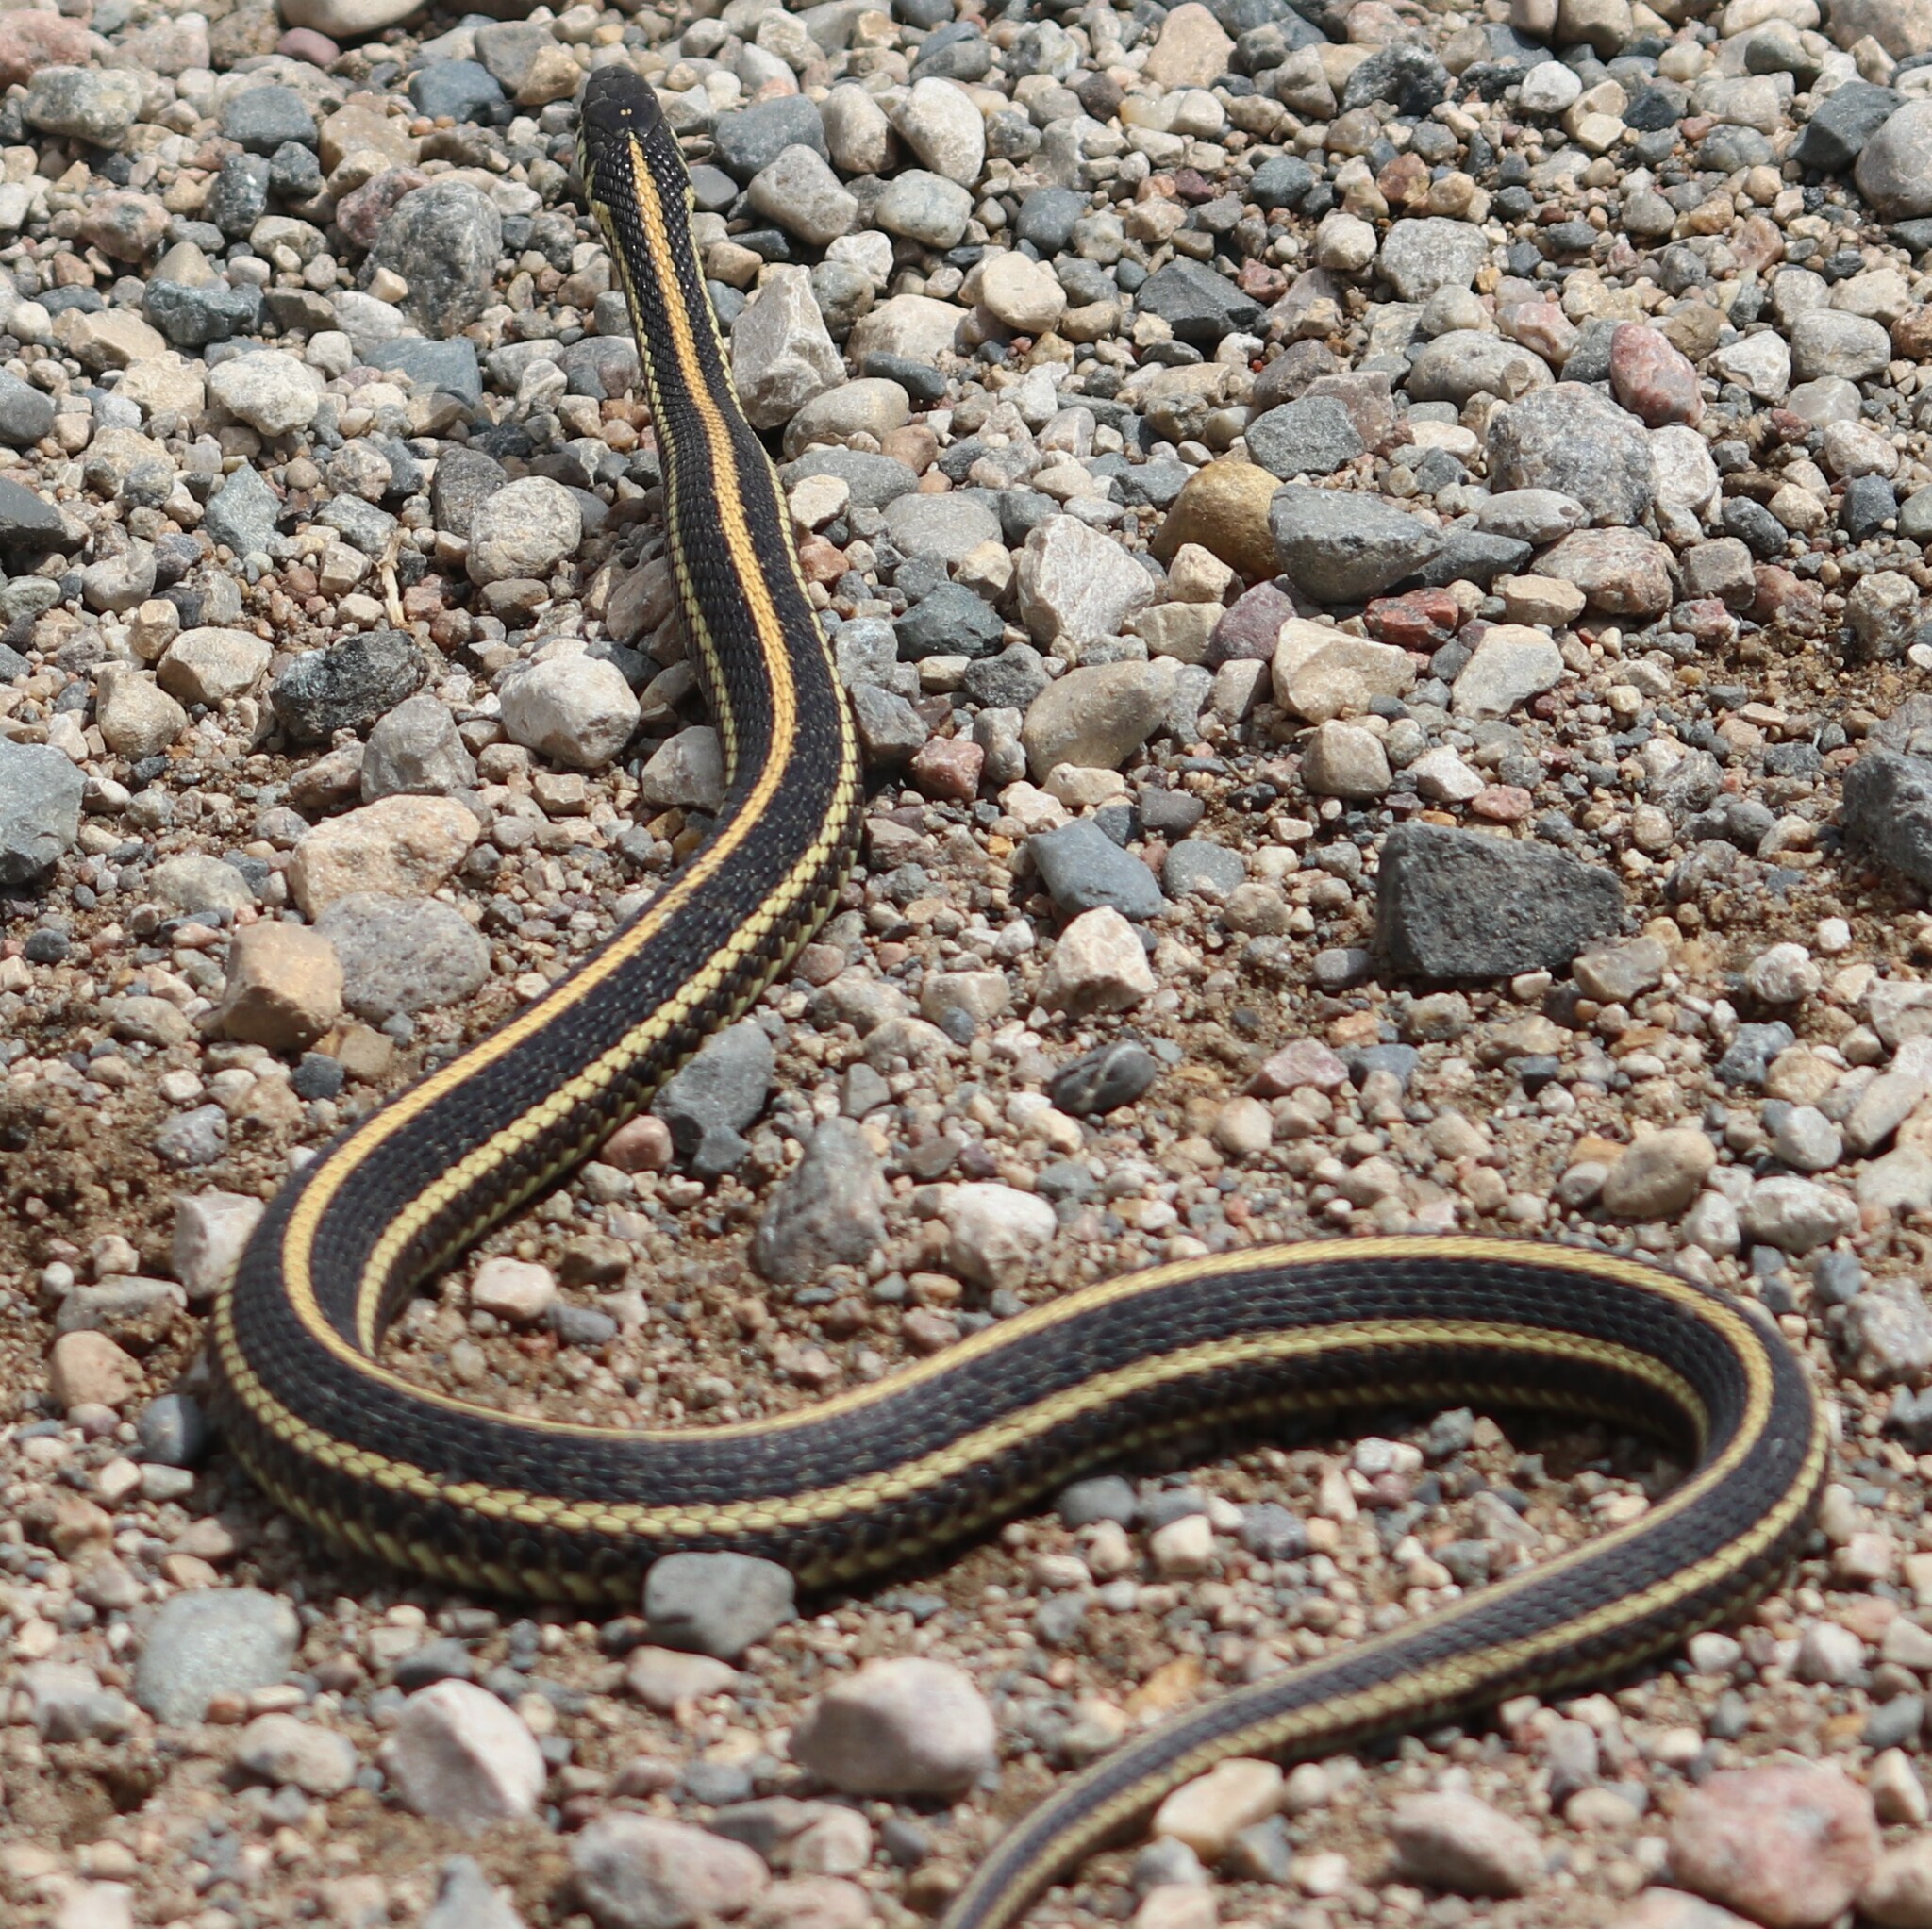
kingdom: Animalia
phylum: Chordata
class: Squamata
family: Colubridae
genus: Thamnophis
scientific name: Thamnophis radix
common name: Plains garter snake
